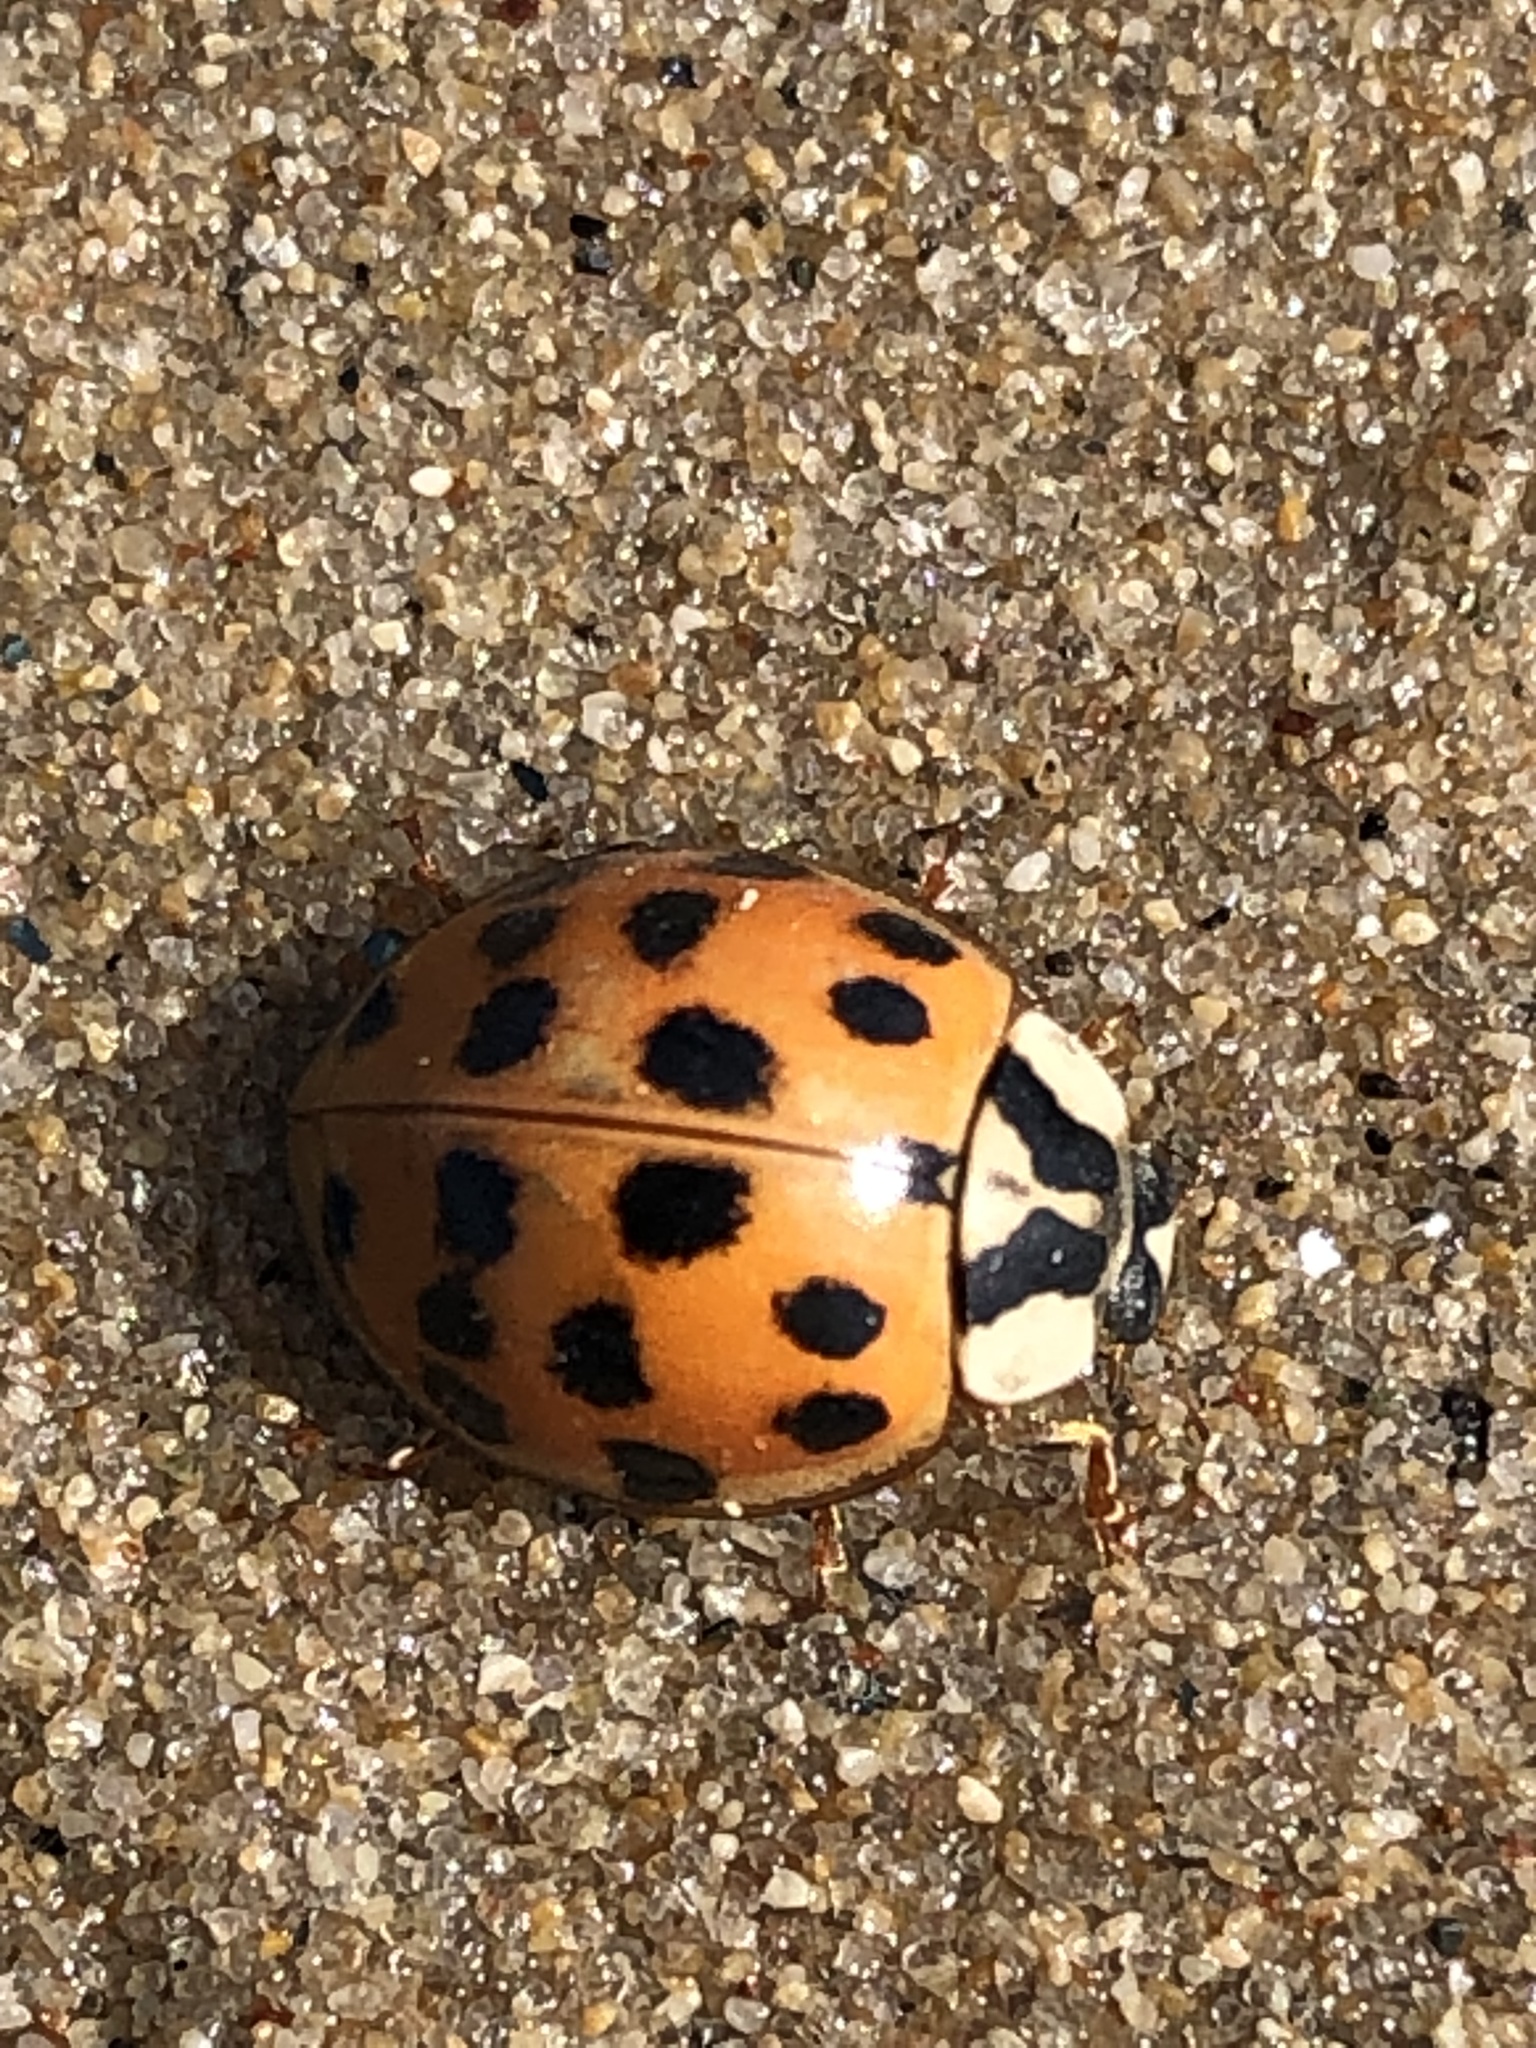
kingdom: Animalia
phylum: Arthropoda
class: Insecta
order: Coleoptera
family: Coccinellidae
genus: Harmonia
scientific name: Harmonia axyridis
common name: Harlequin ladybird
